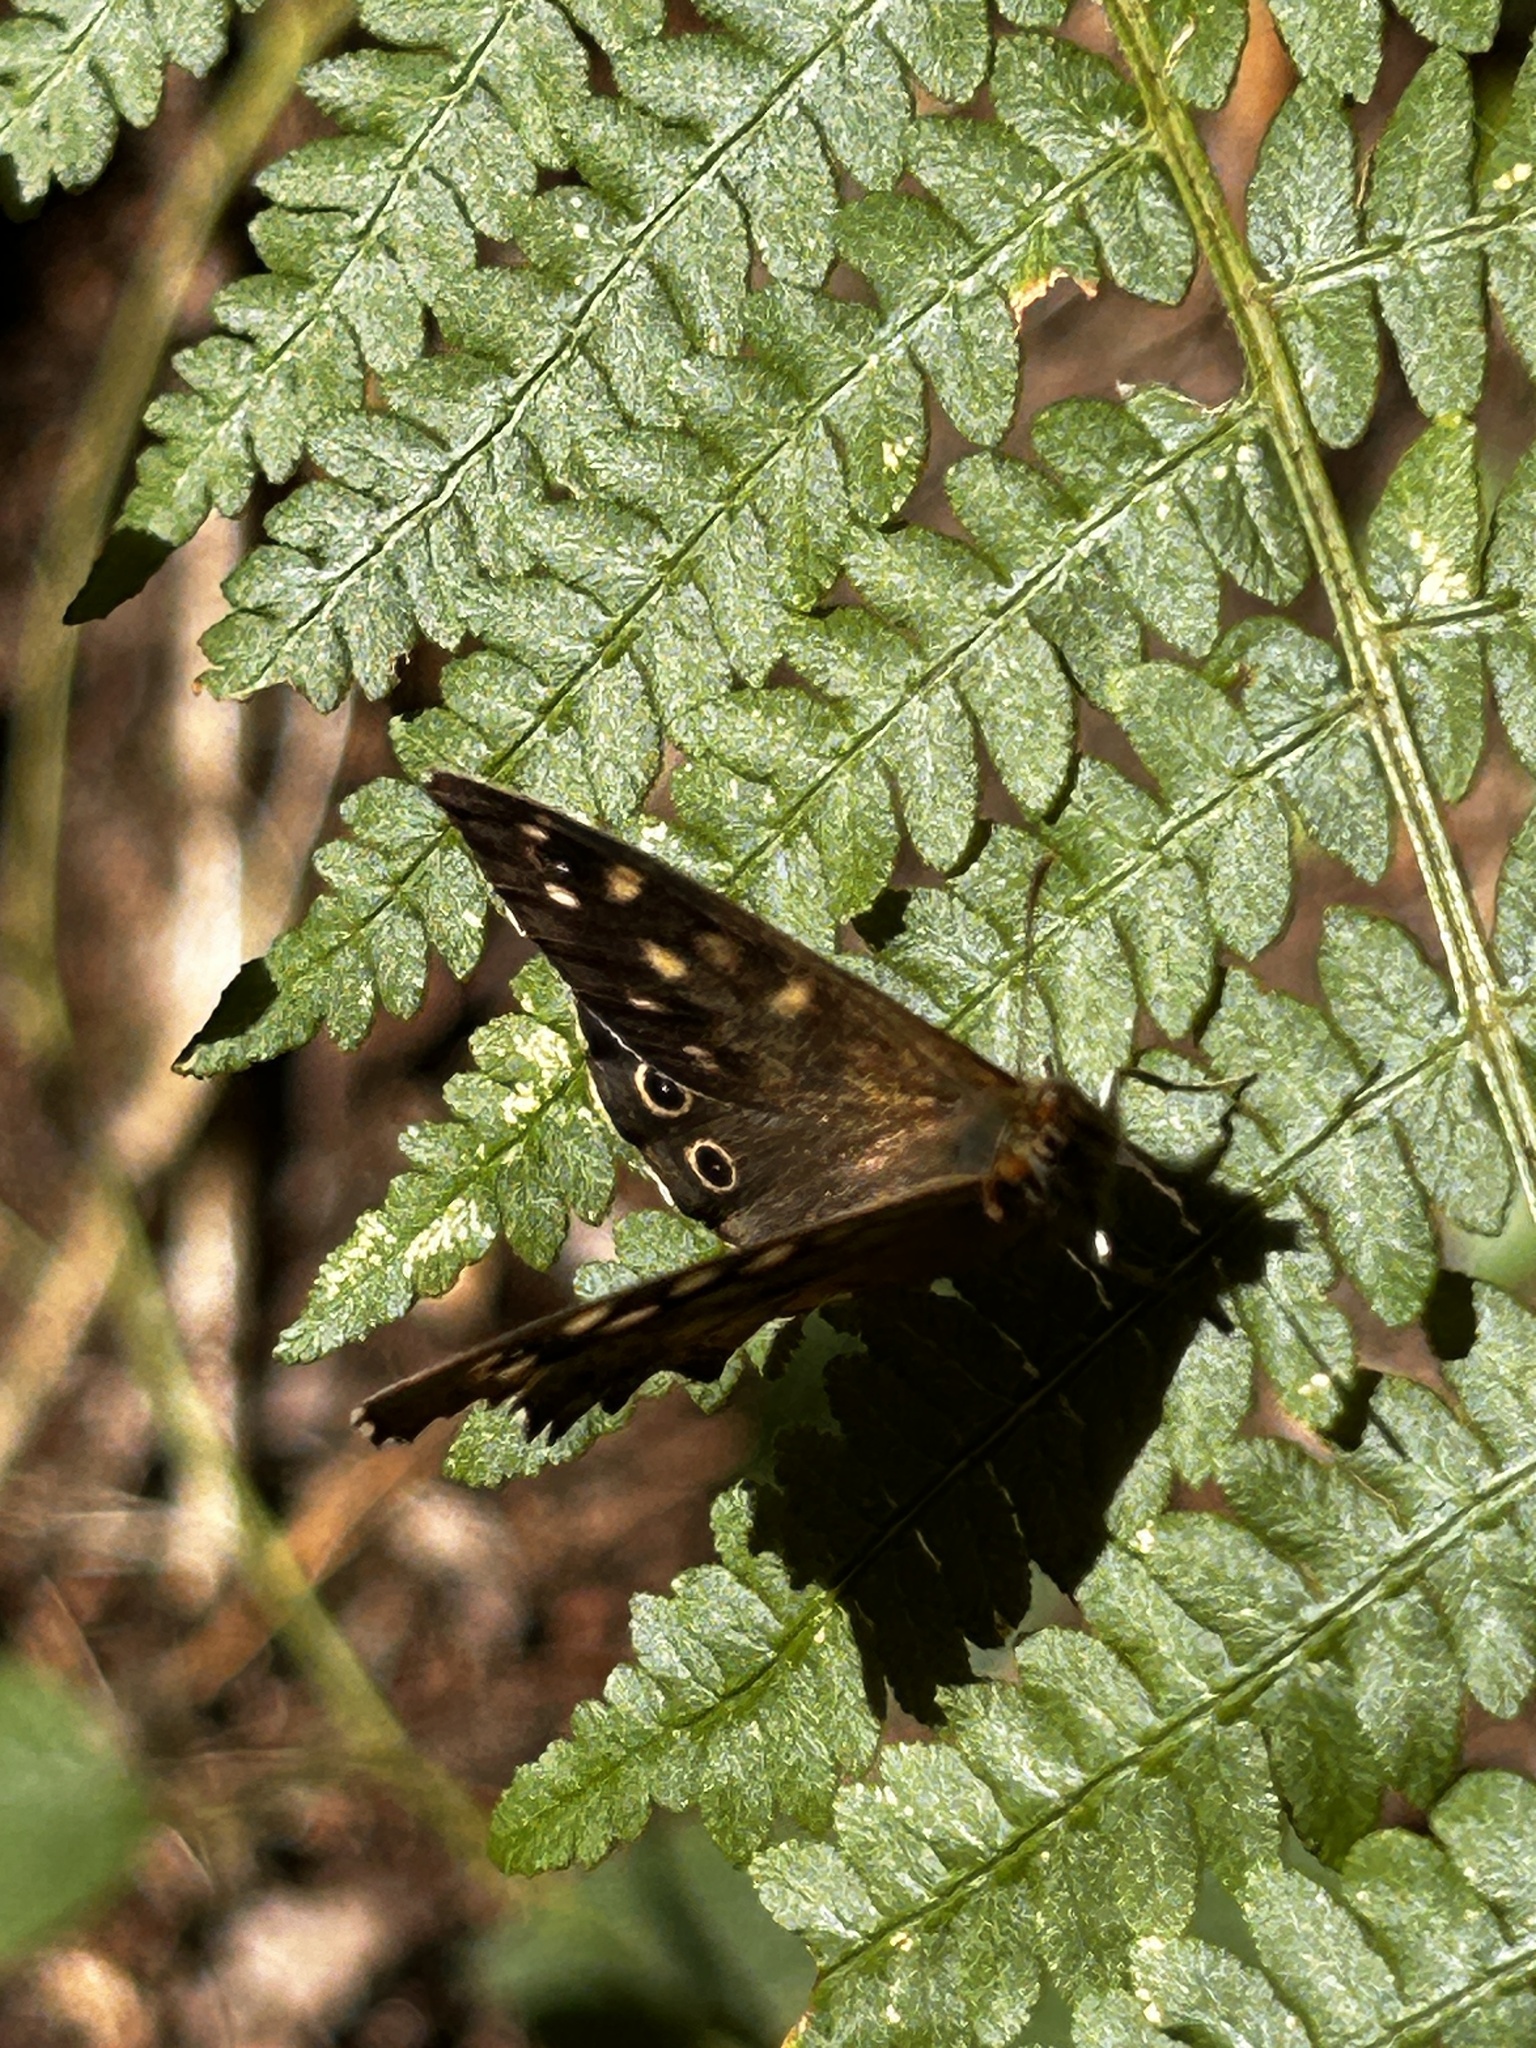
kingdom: Animalia
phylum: Arthropoda
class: Insecta
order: Lepidoptera
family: Nymphalidae
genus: Pararge
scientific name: Pararge aegeria
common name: Speckled wood
